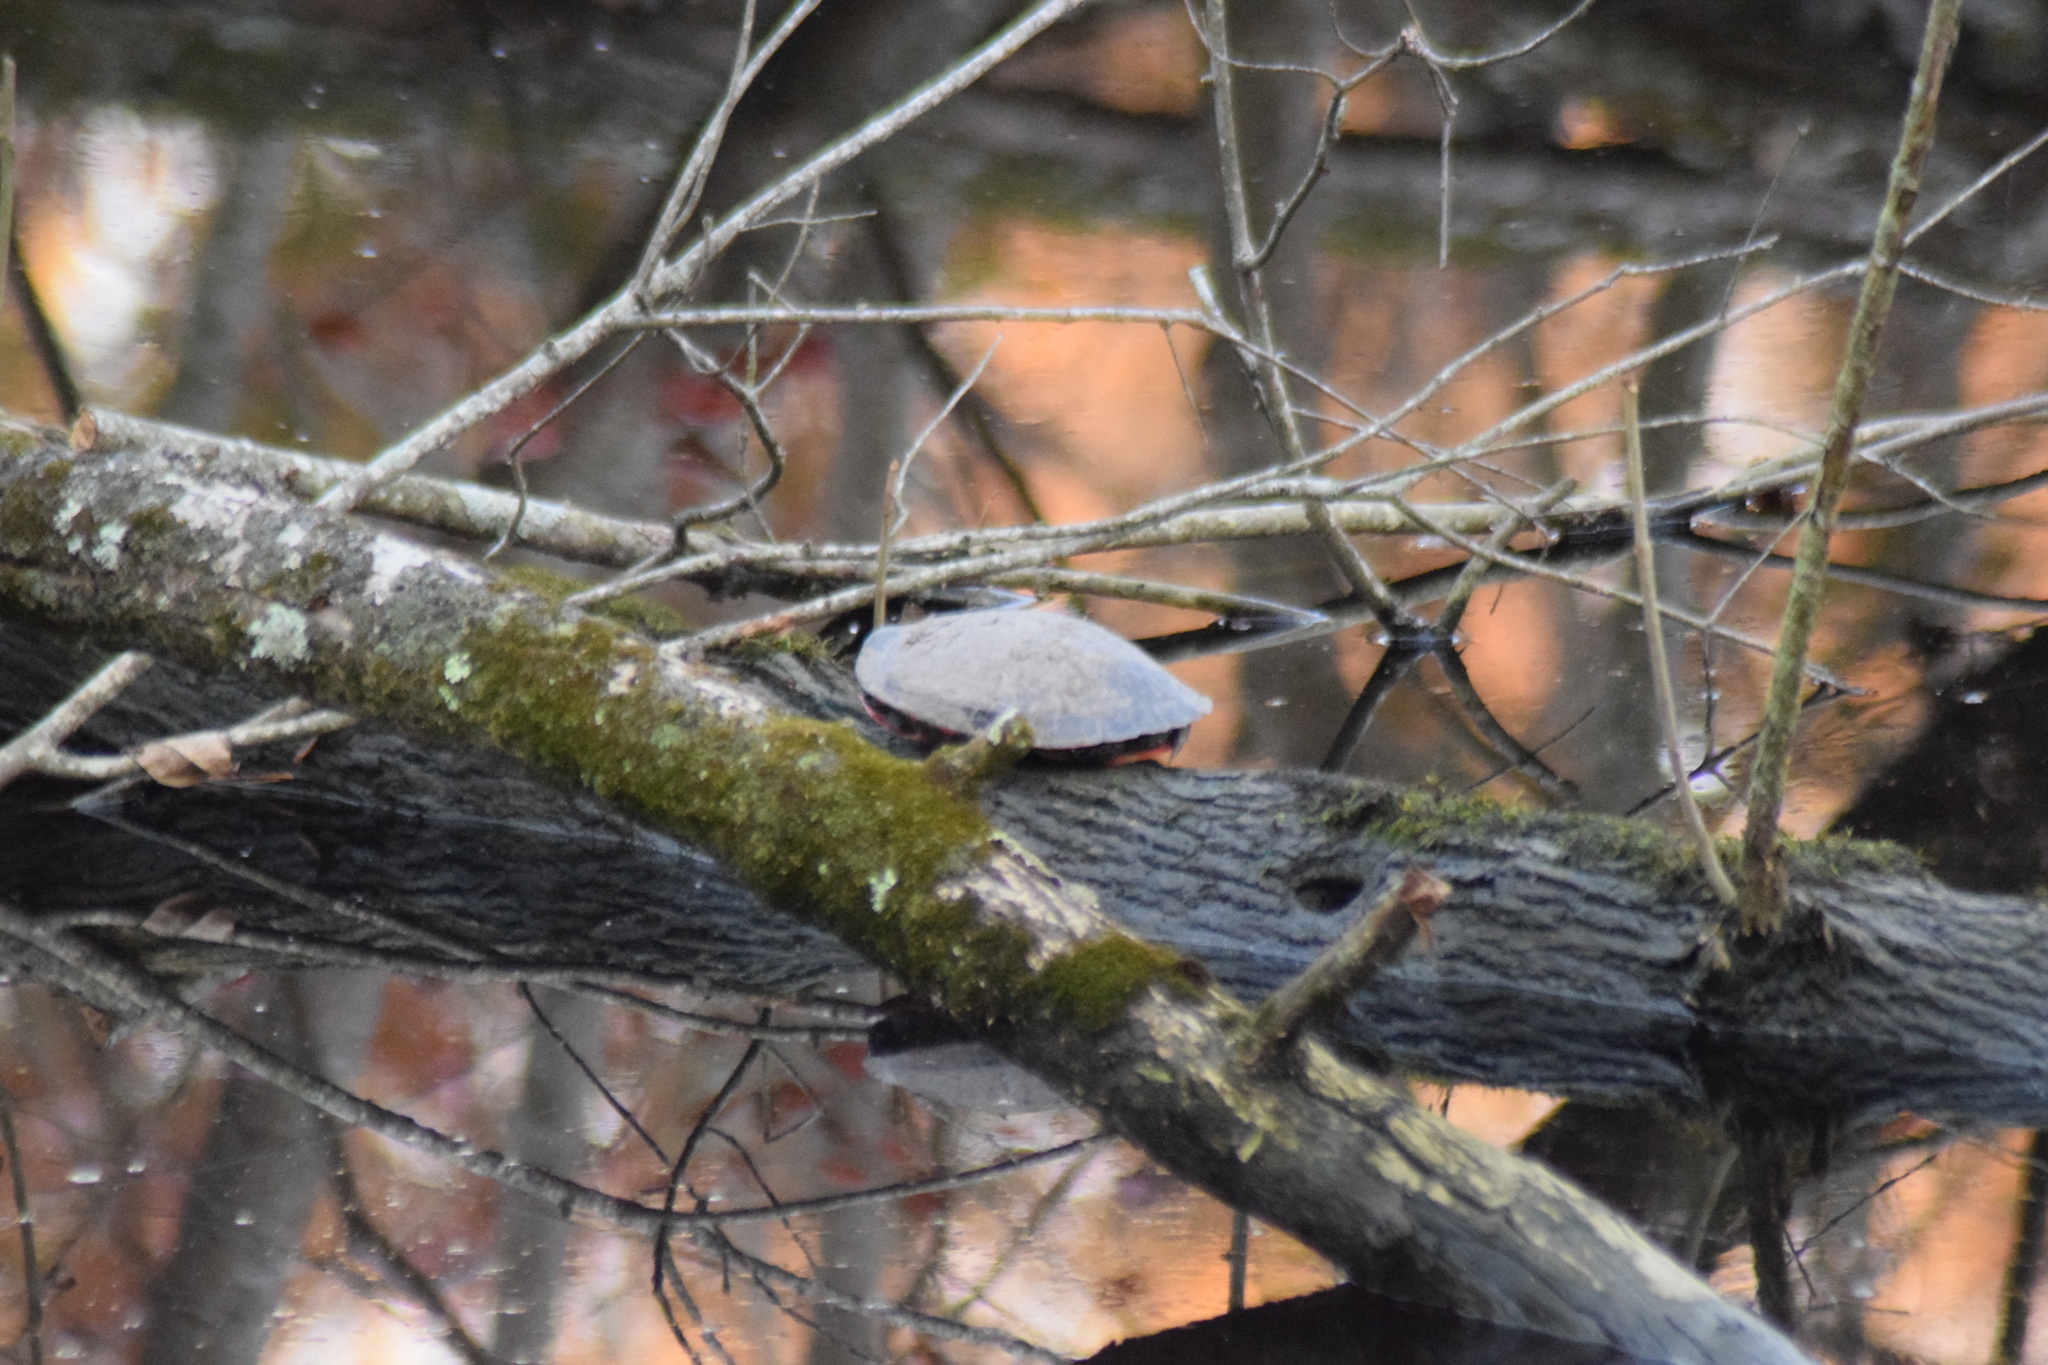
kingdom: Animalia
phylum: Chordata
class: Testudines
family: Emydidae
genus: Pseudemys
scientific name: Pseudemys rubriventris
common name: American red-bellied turtle
